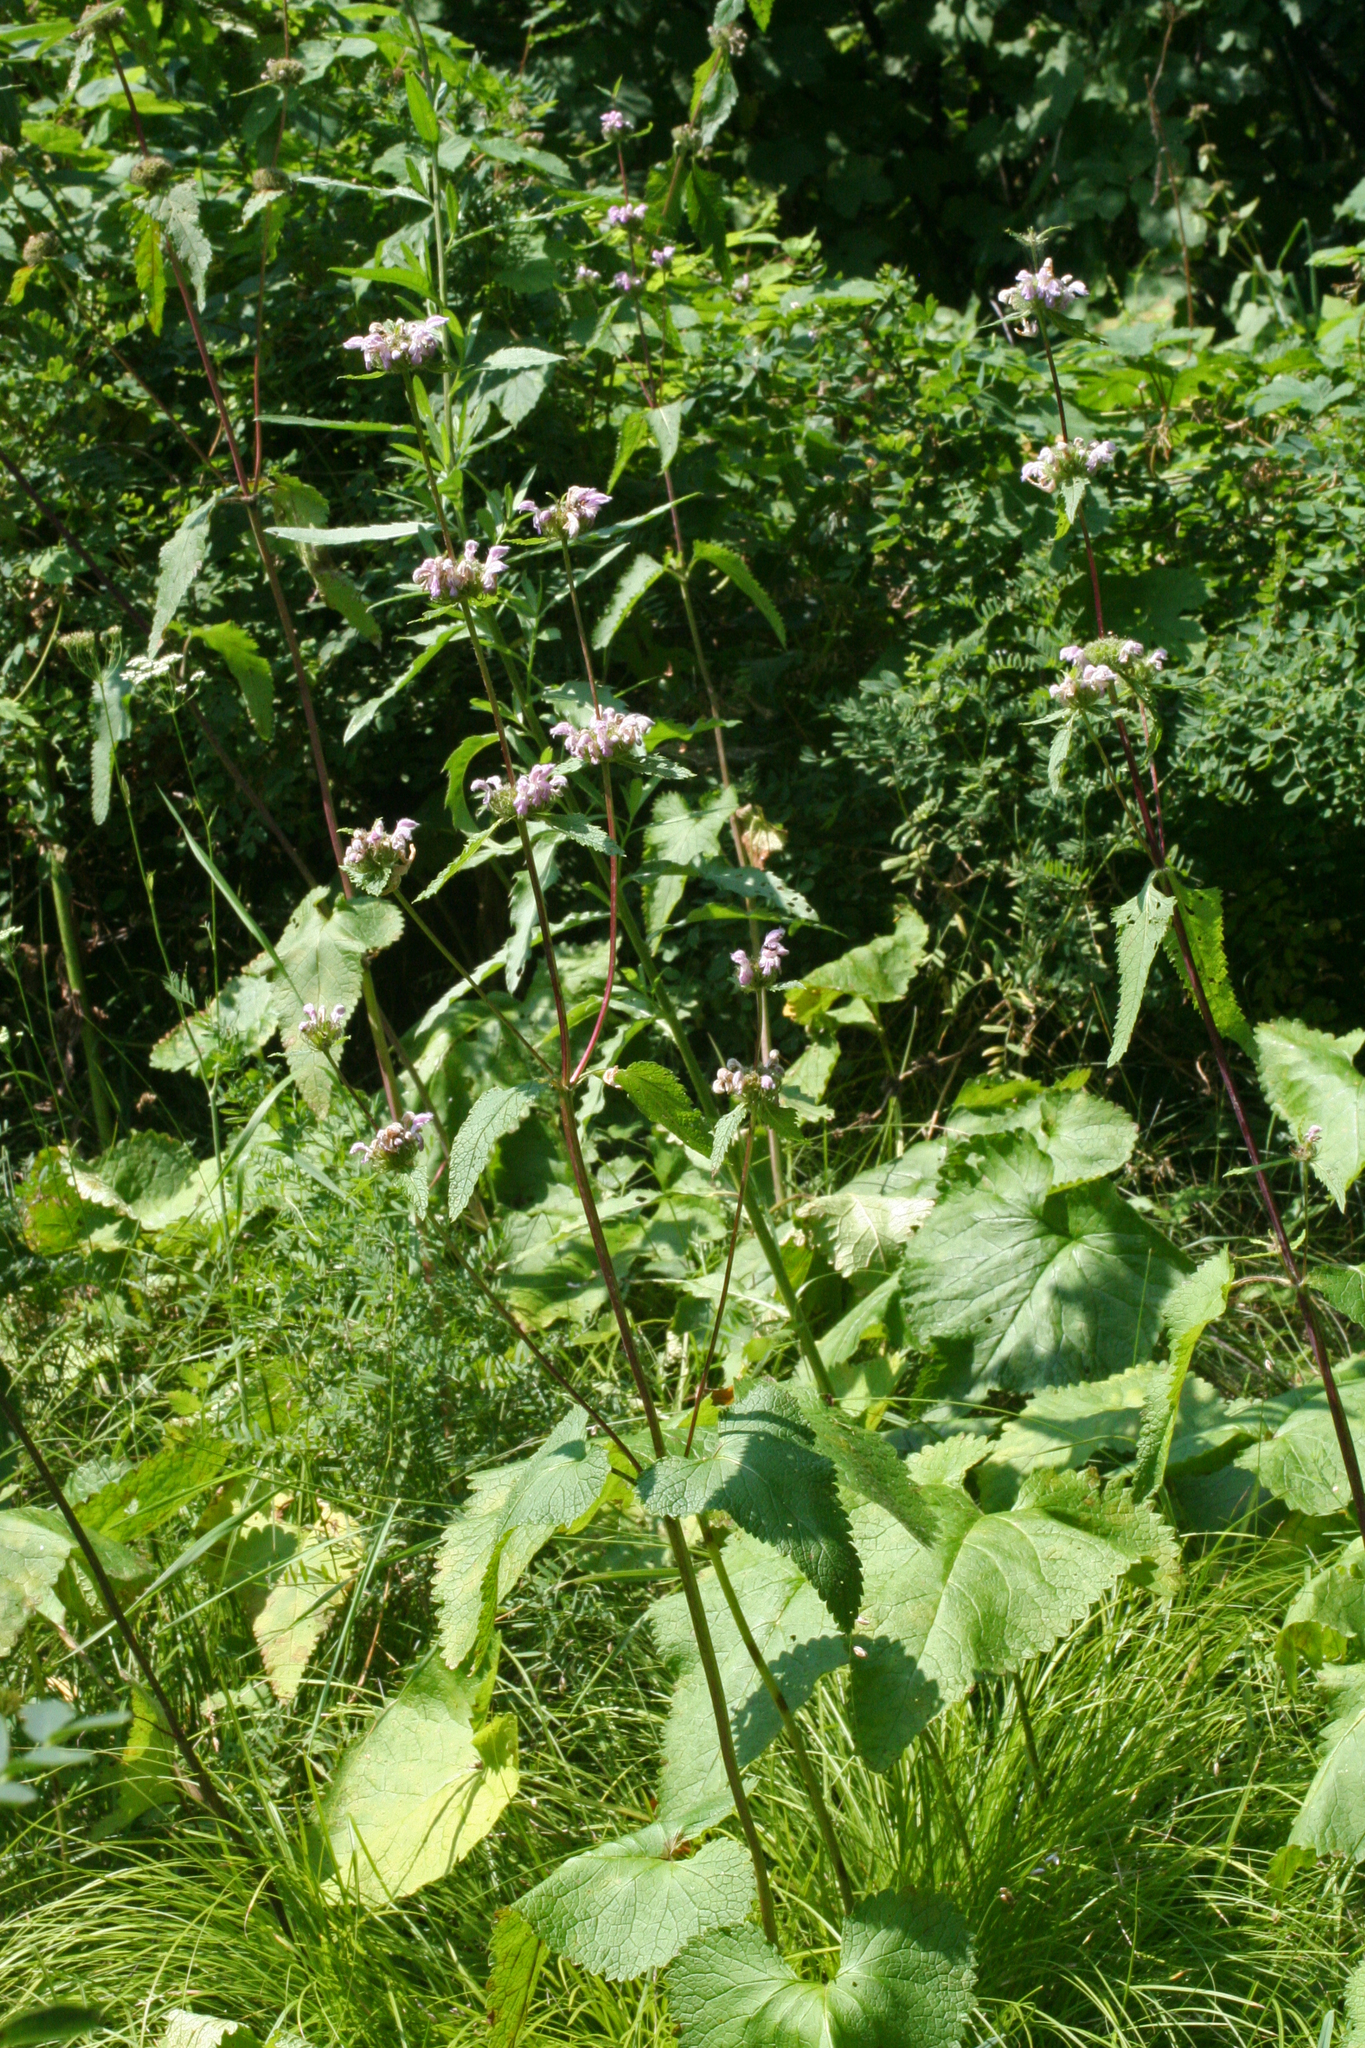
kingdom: Plantae
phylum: Tracheophyta
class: Magnoliopsida
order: Lamiales
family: Lamiaceae
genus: Phlomoides
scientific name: Phlomoides tuberosa
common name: Tuberous jerusalem sage
